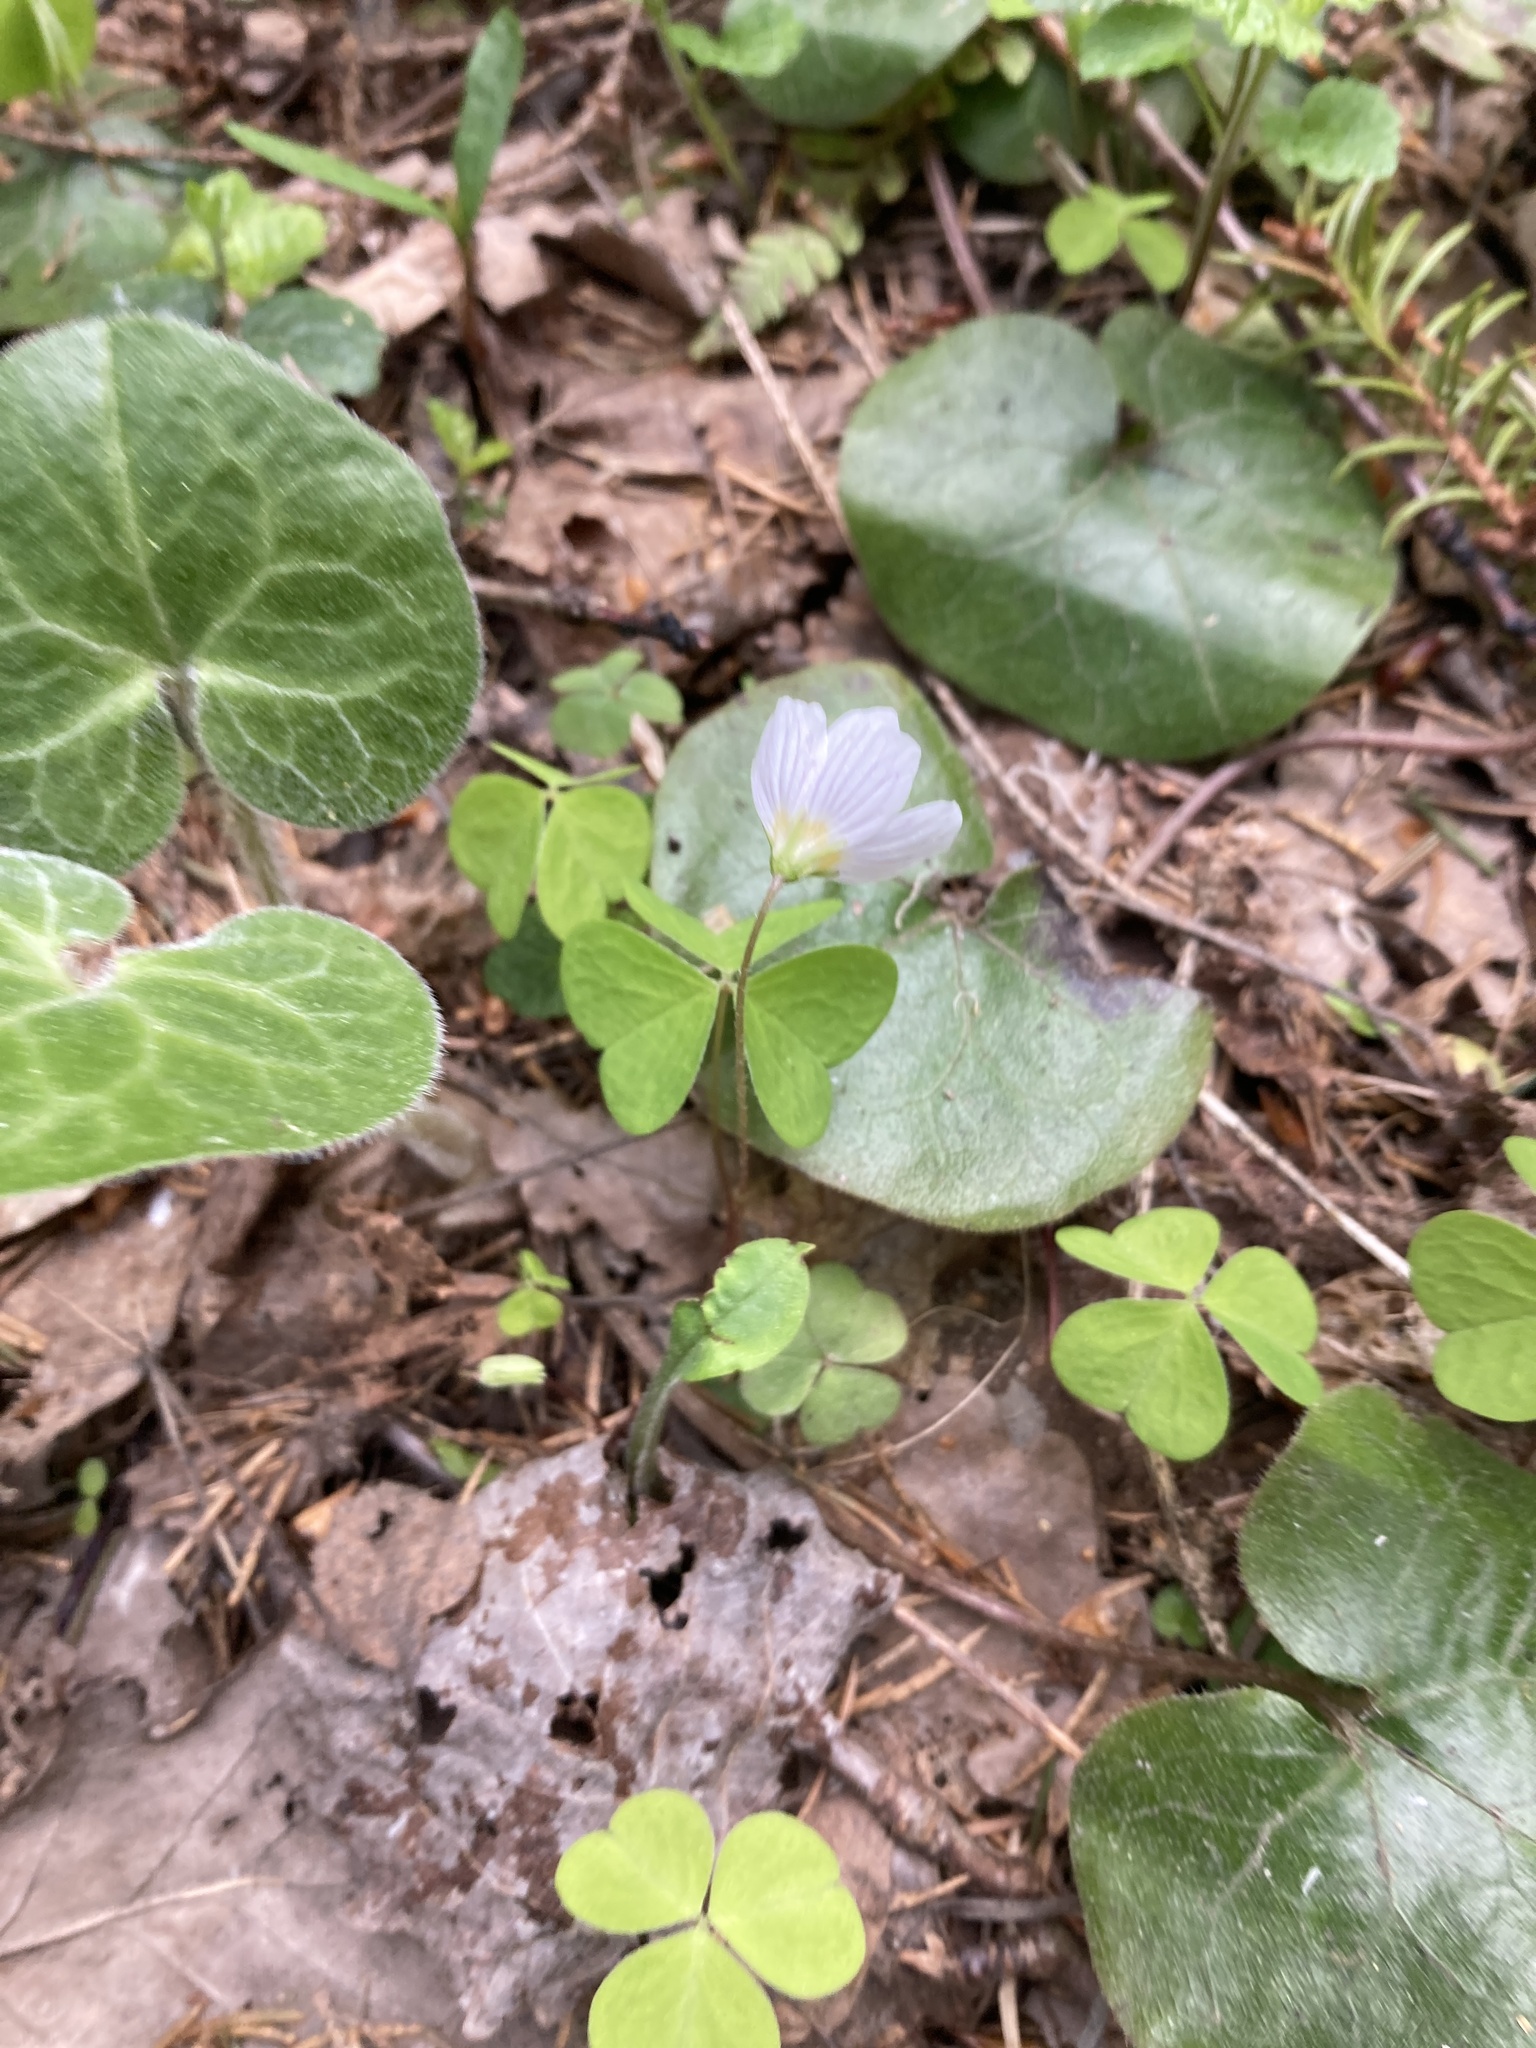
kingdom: Plantae
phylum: Tracheophyta
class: Magnoliopsida
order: Oxalidales
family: Oxalidaceae
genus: Oxalis
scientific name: Oxalis acetosella
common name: Wood-sorrel
